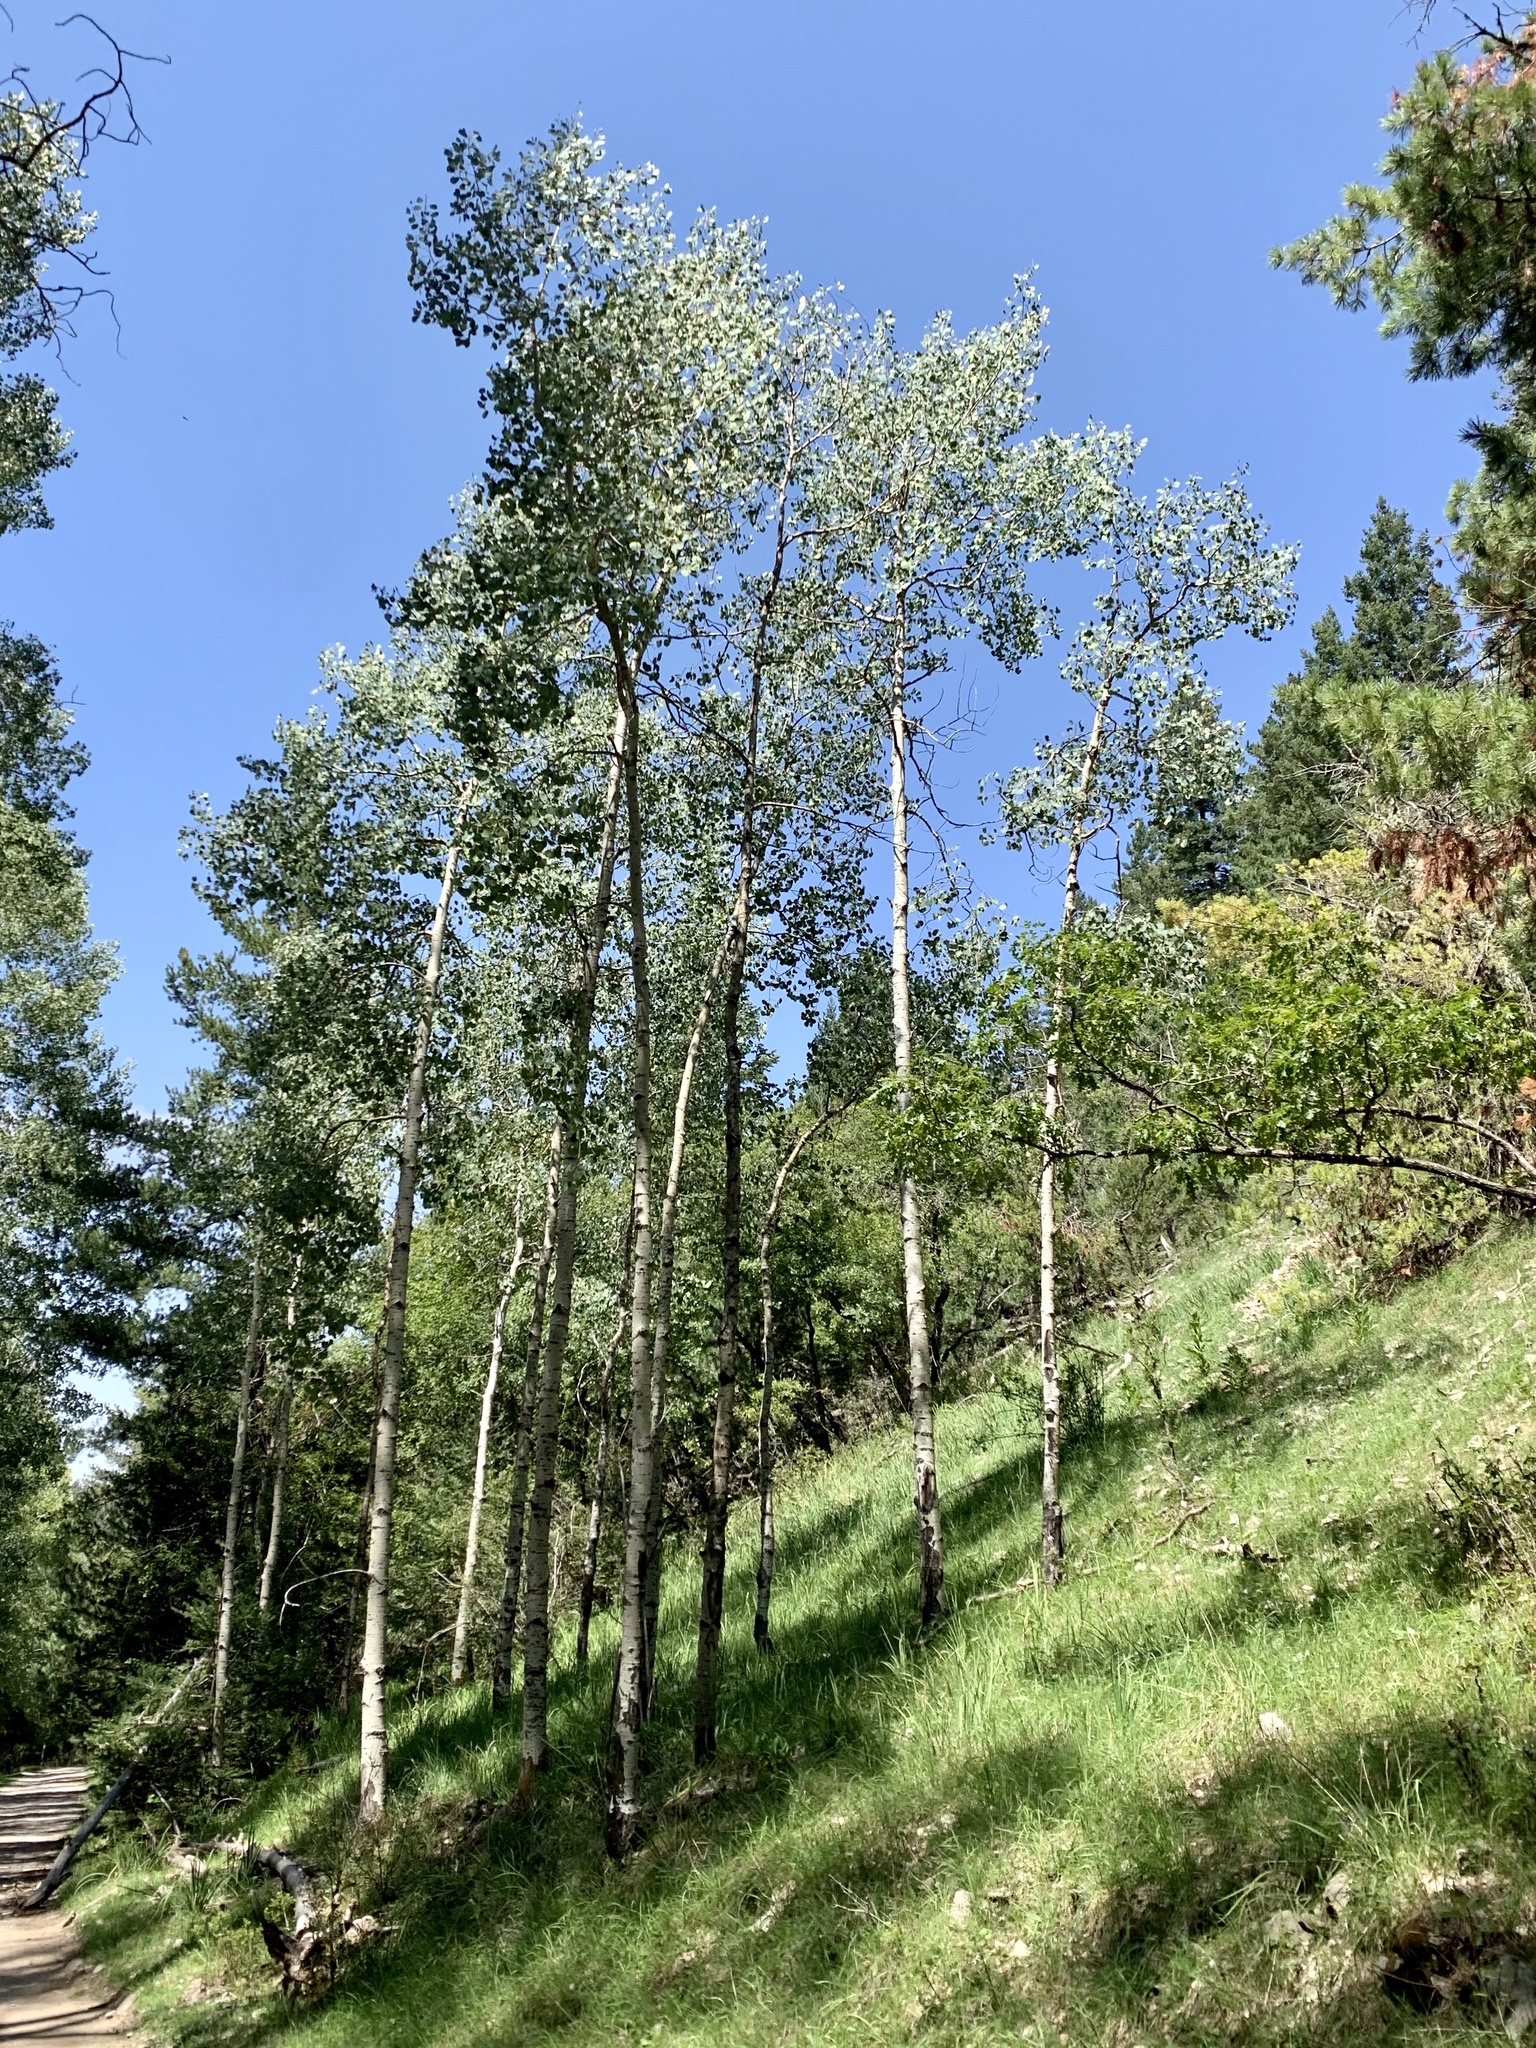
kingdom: Plantae
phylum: Tracheophyta
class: Magnoliopsida
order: Malpighiales
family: Salicaceae
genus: Populus
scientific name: Populus tremuloides
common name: Quaking aspen
